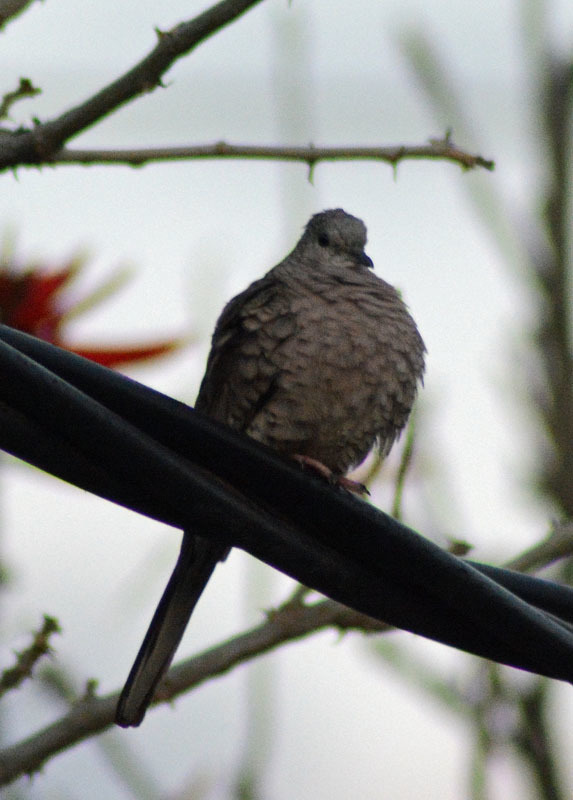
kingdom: Animalia
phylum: Chordata
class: Aves
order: Columbiformes
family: Columbidae
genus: Columbina
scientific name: Columbina inca
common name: Inca dove
